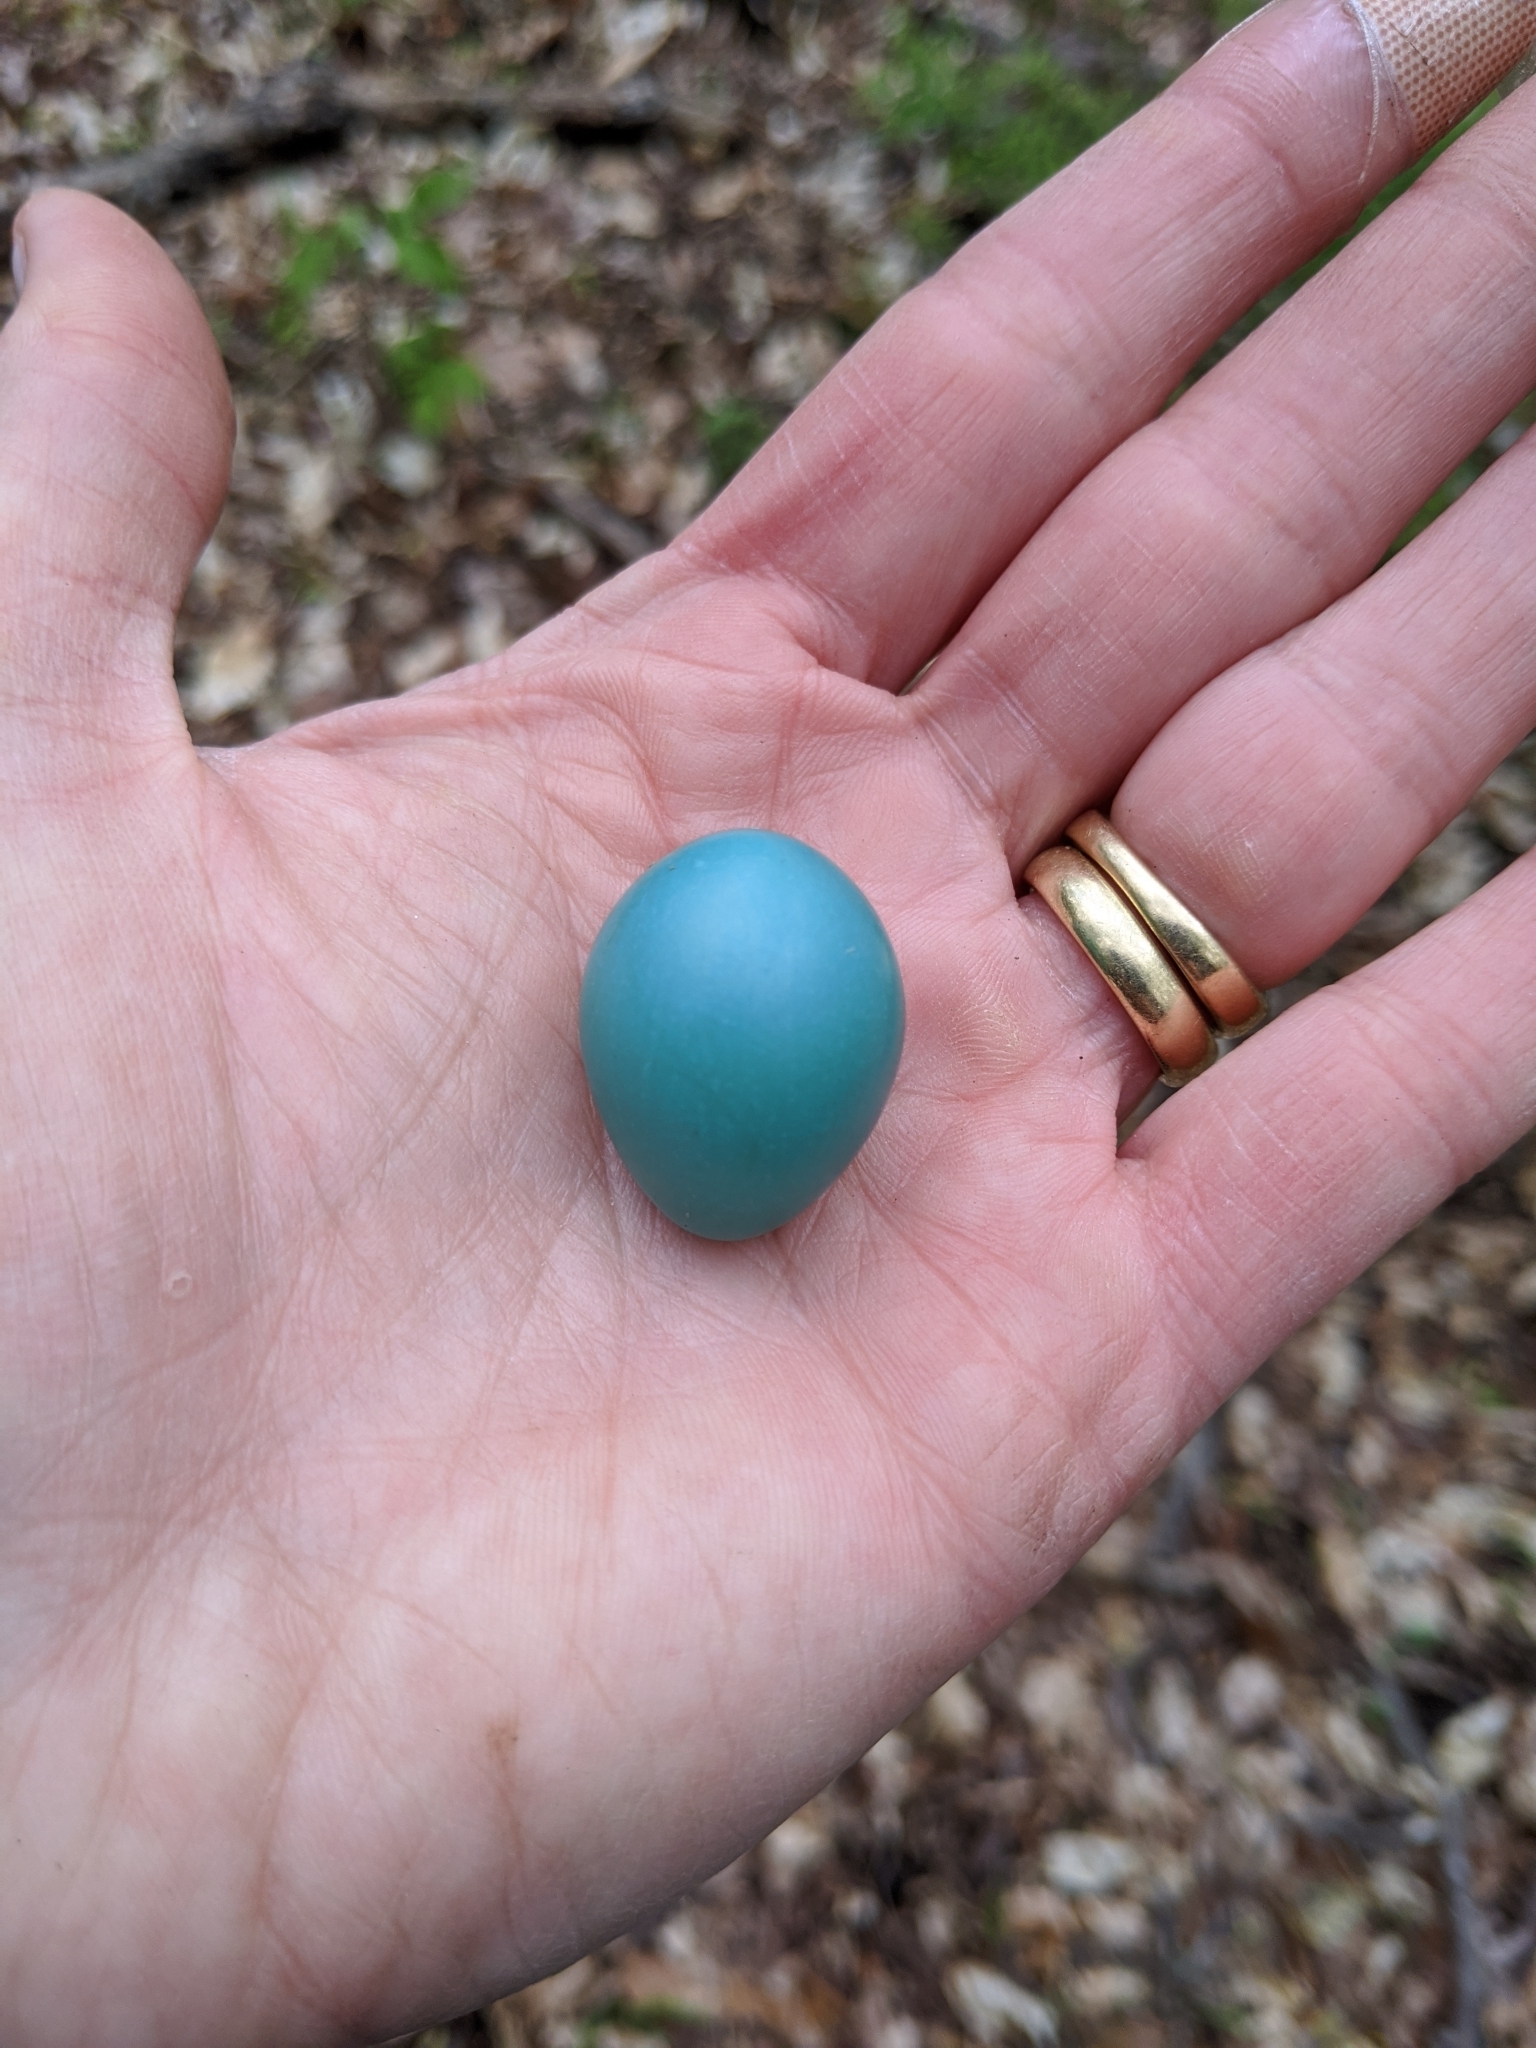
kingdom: Animalia
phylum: Chordata
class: Aves
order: Passeriformes
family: Turdidae
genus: Turdus
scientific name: Turdus migratorius
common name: American robin
